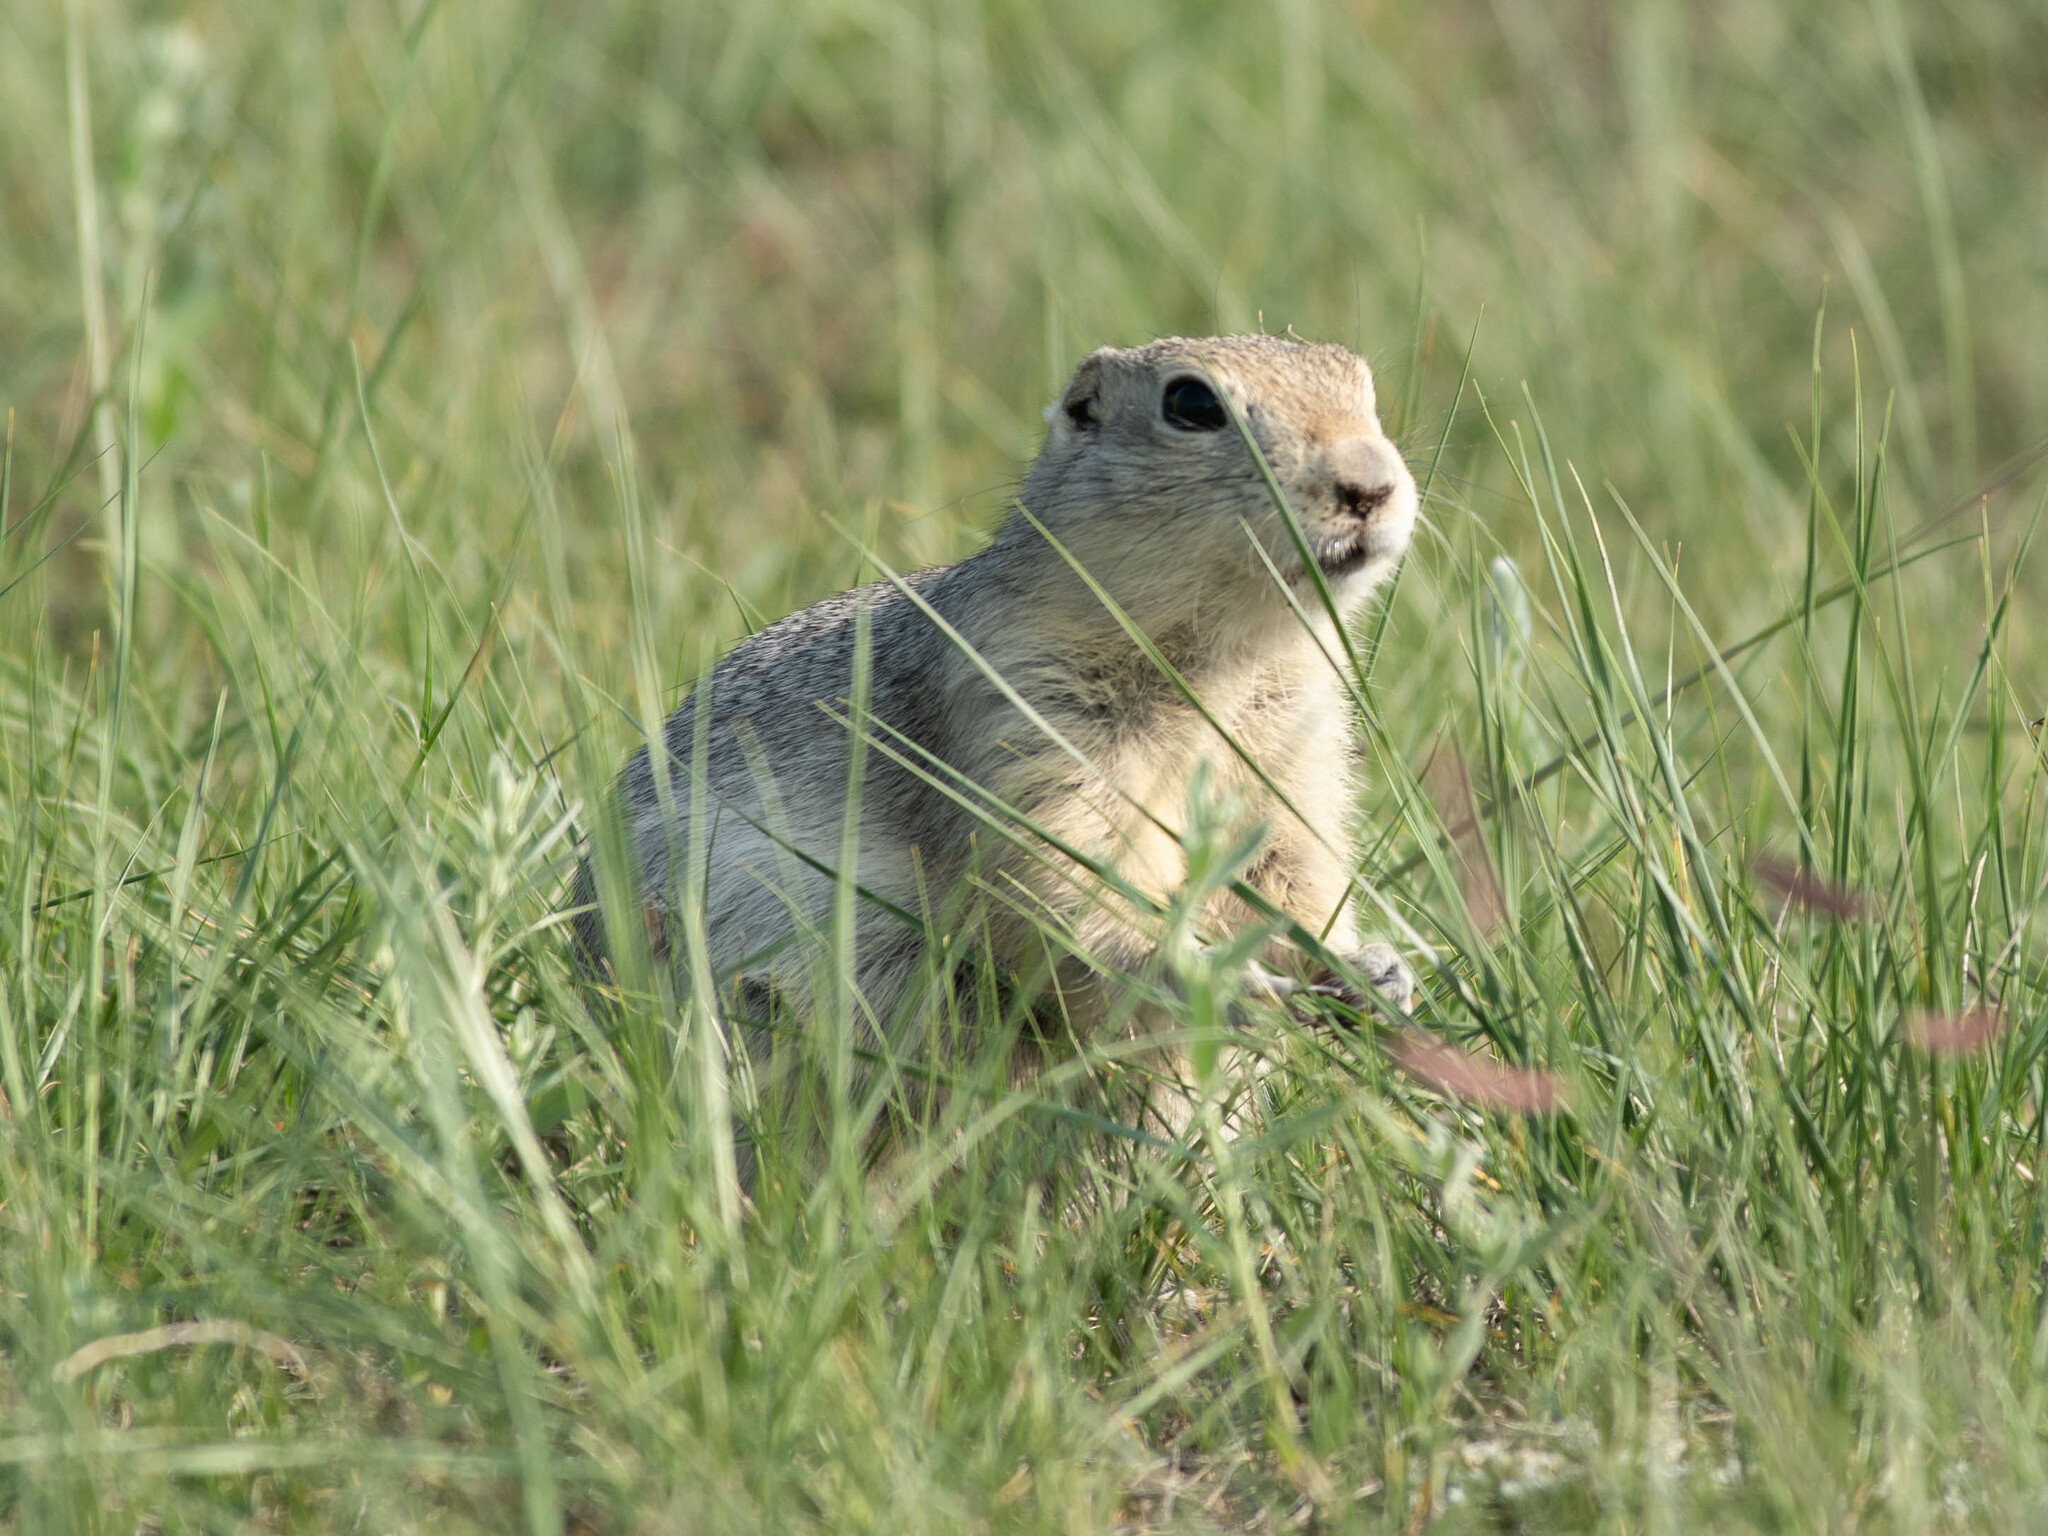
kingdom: Animalia
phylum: Chordata
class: Mammalia
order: Rodentia
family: Sciuridae
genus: Urocitellus
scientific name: Urocitellus richardsonii
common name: Richardson's ground squirrel
